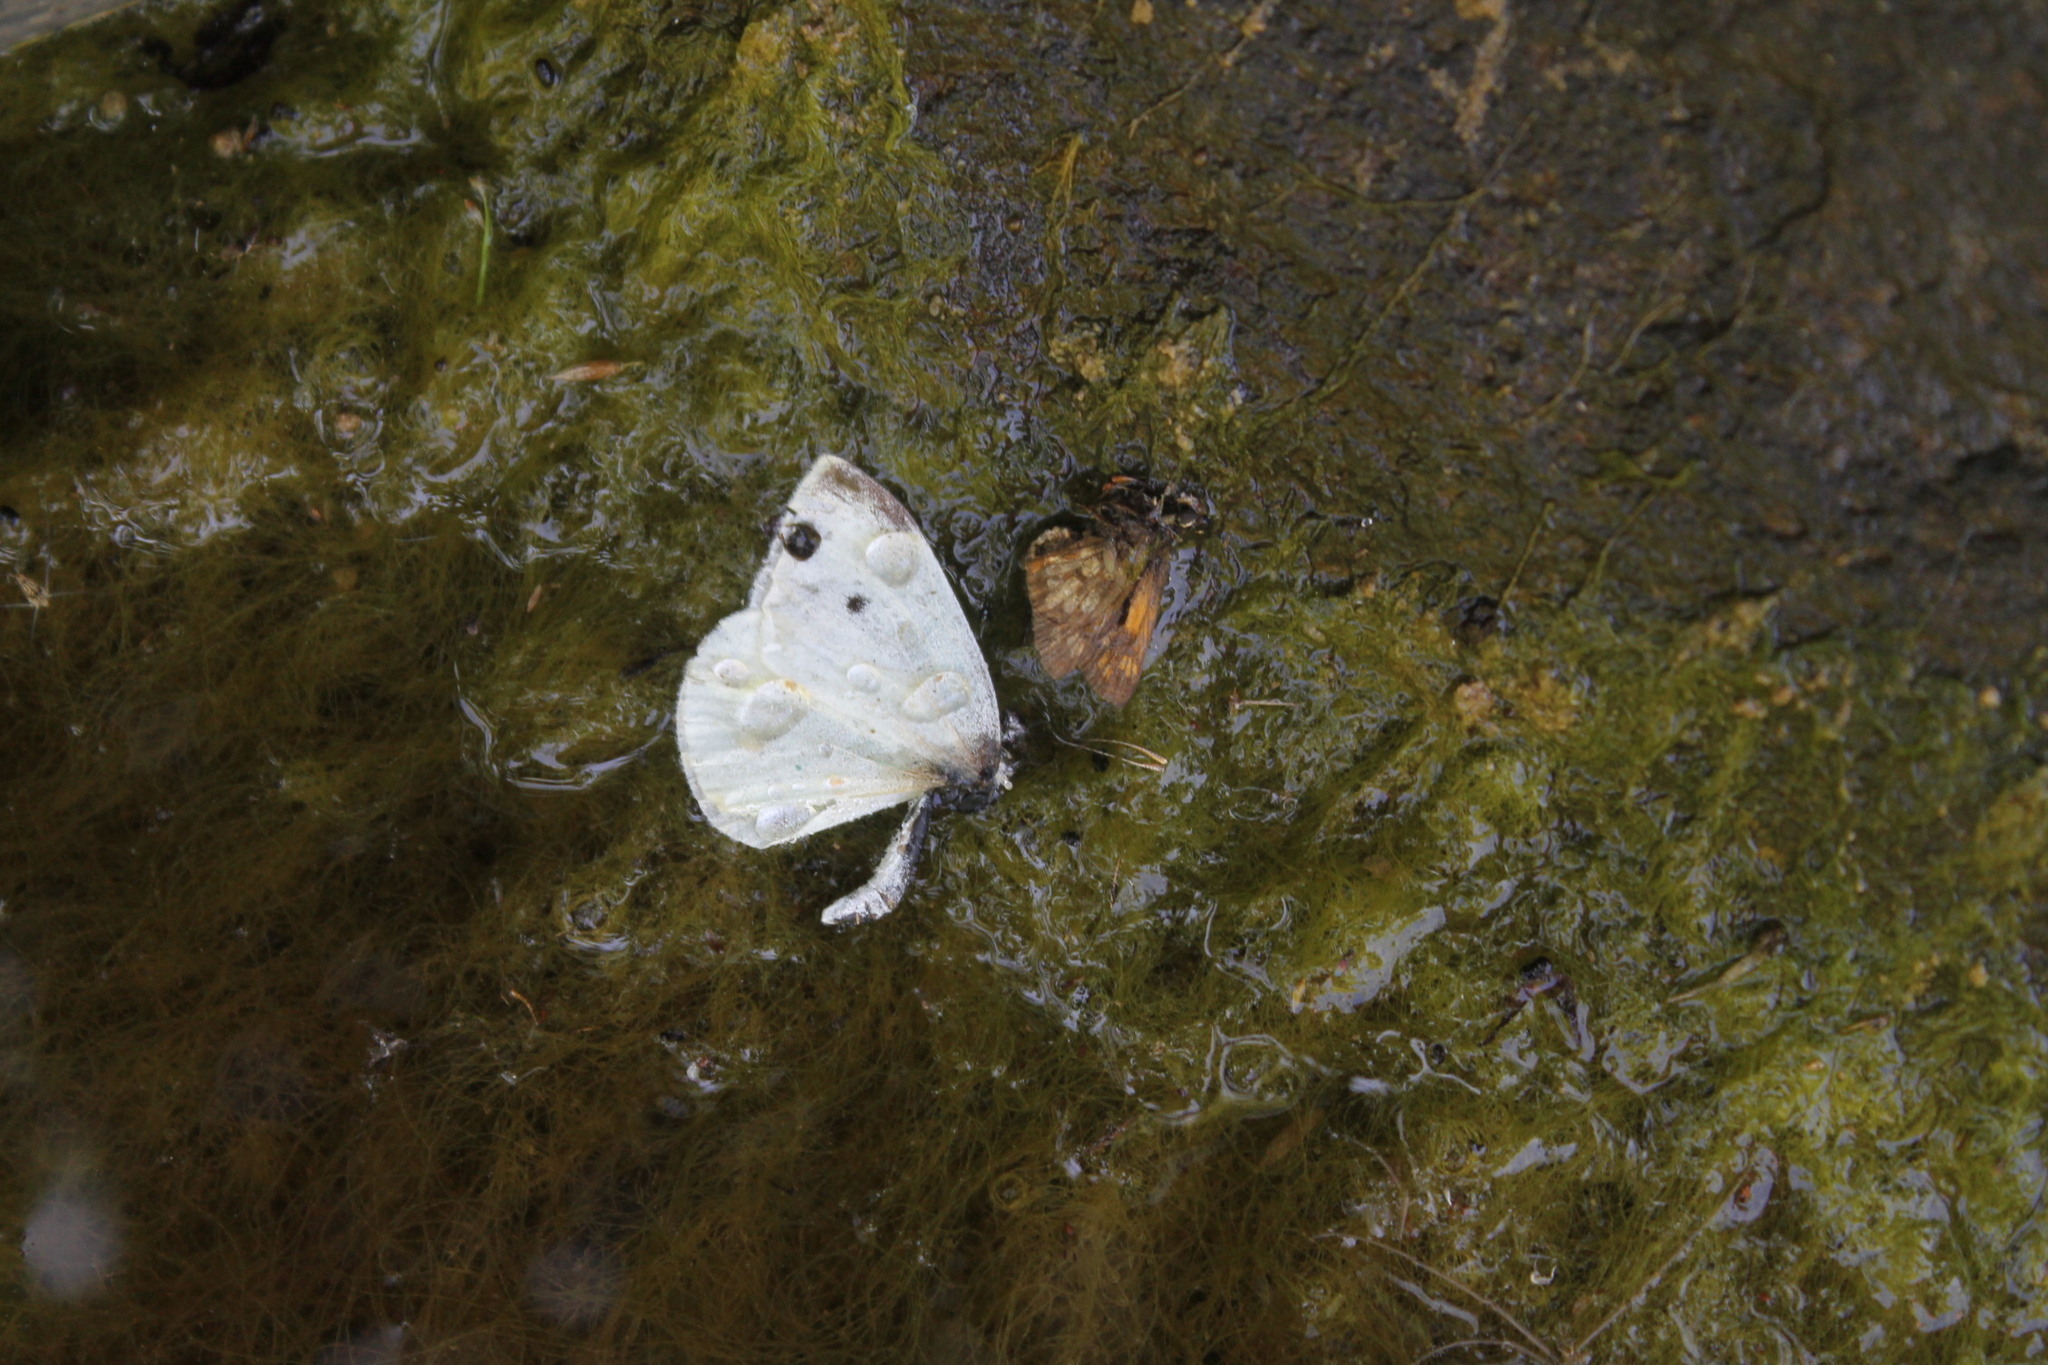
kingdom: Animalia
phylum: Arthropoda
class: Insecta
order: Lepidoptera
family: Pieridae
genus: Pieris
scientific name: Pieris rapae
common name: Small white
